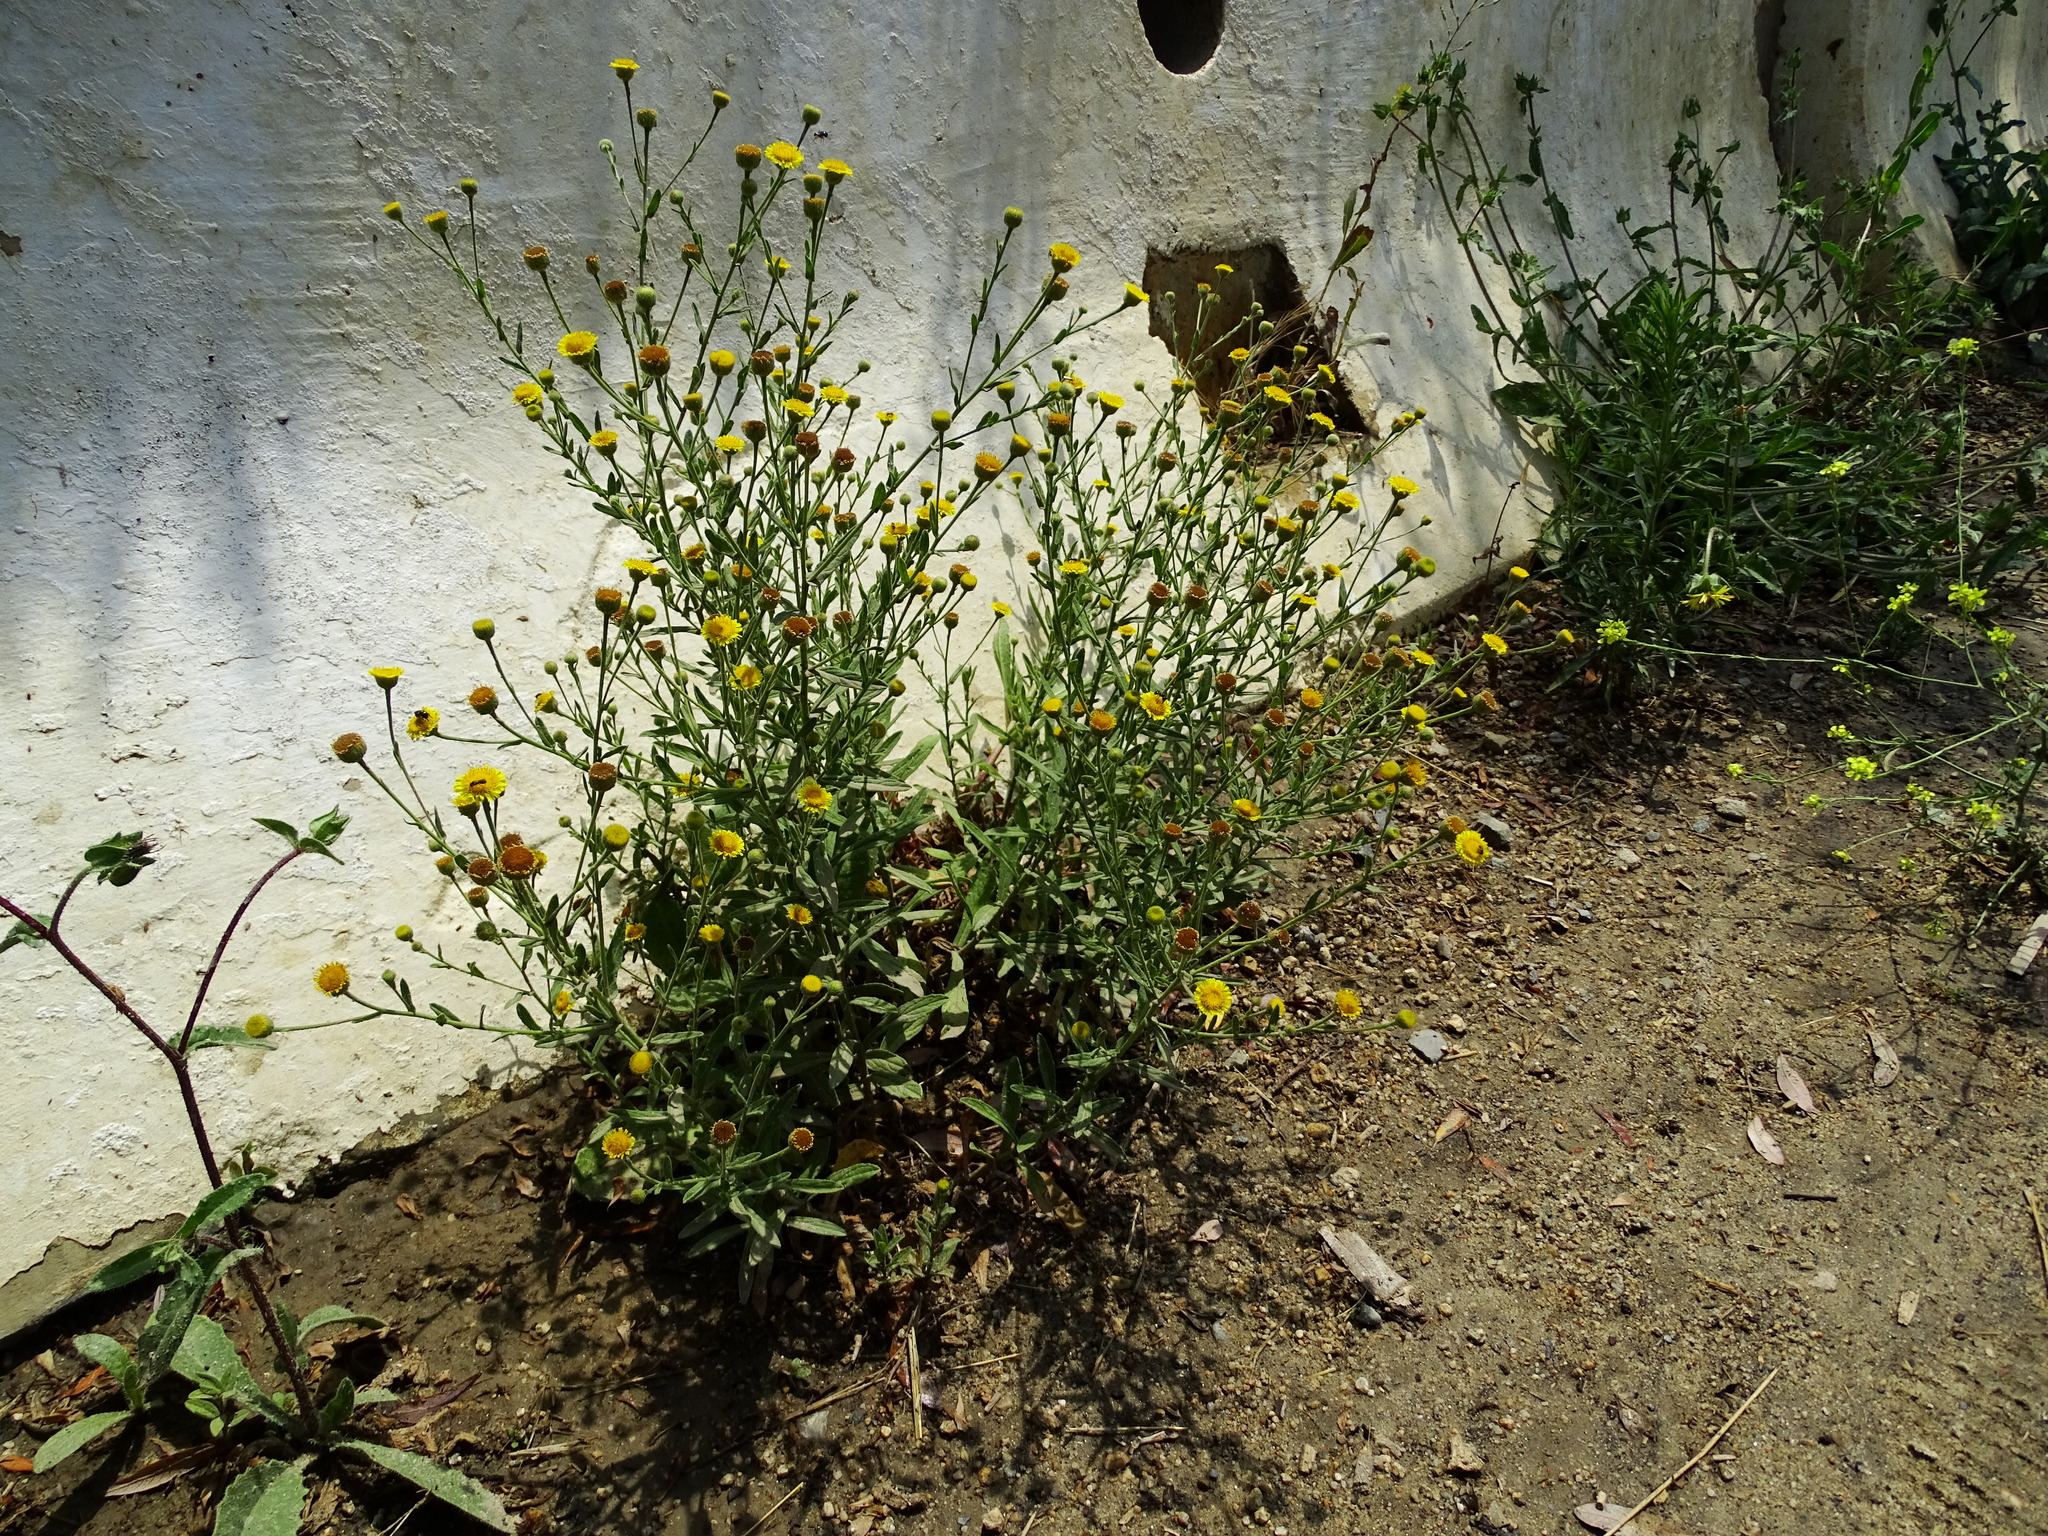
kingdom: Plantae
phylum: Tracheophyta
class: Magnoliopsida
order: Asterales
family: Asteraceae
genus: Pulicaria
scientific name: Pulicaria paludosa
